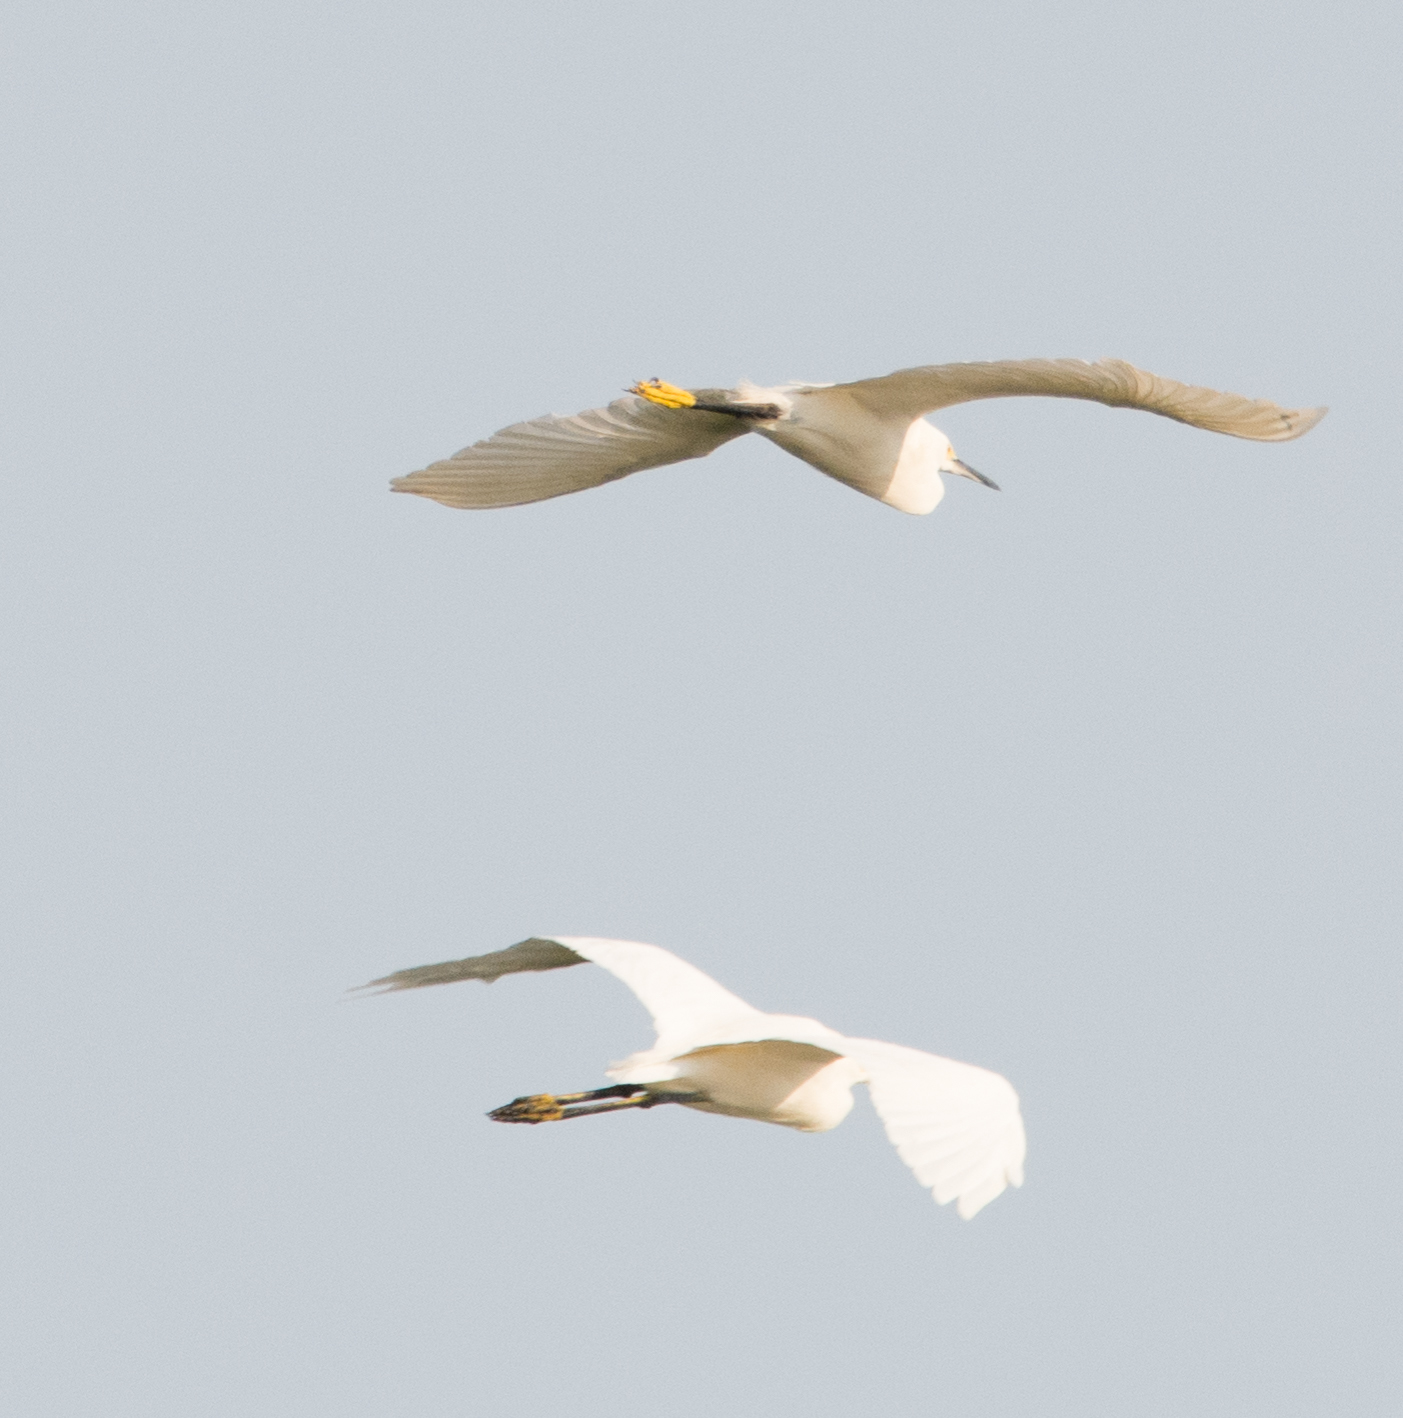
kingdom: Animalia
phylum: Chordata
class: Aves
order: Pelecaniformes
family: Ardeidae
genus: Egretta
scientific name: Egretta thula
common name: Snowy egret
